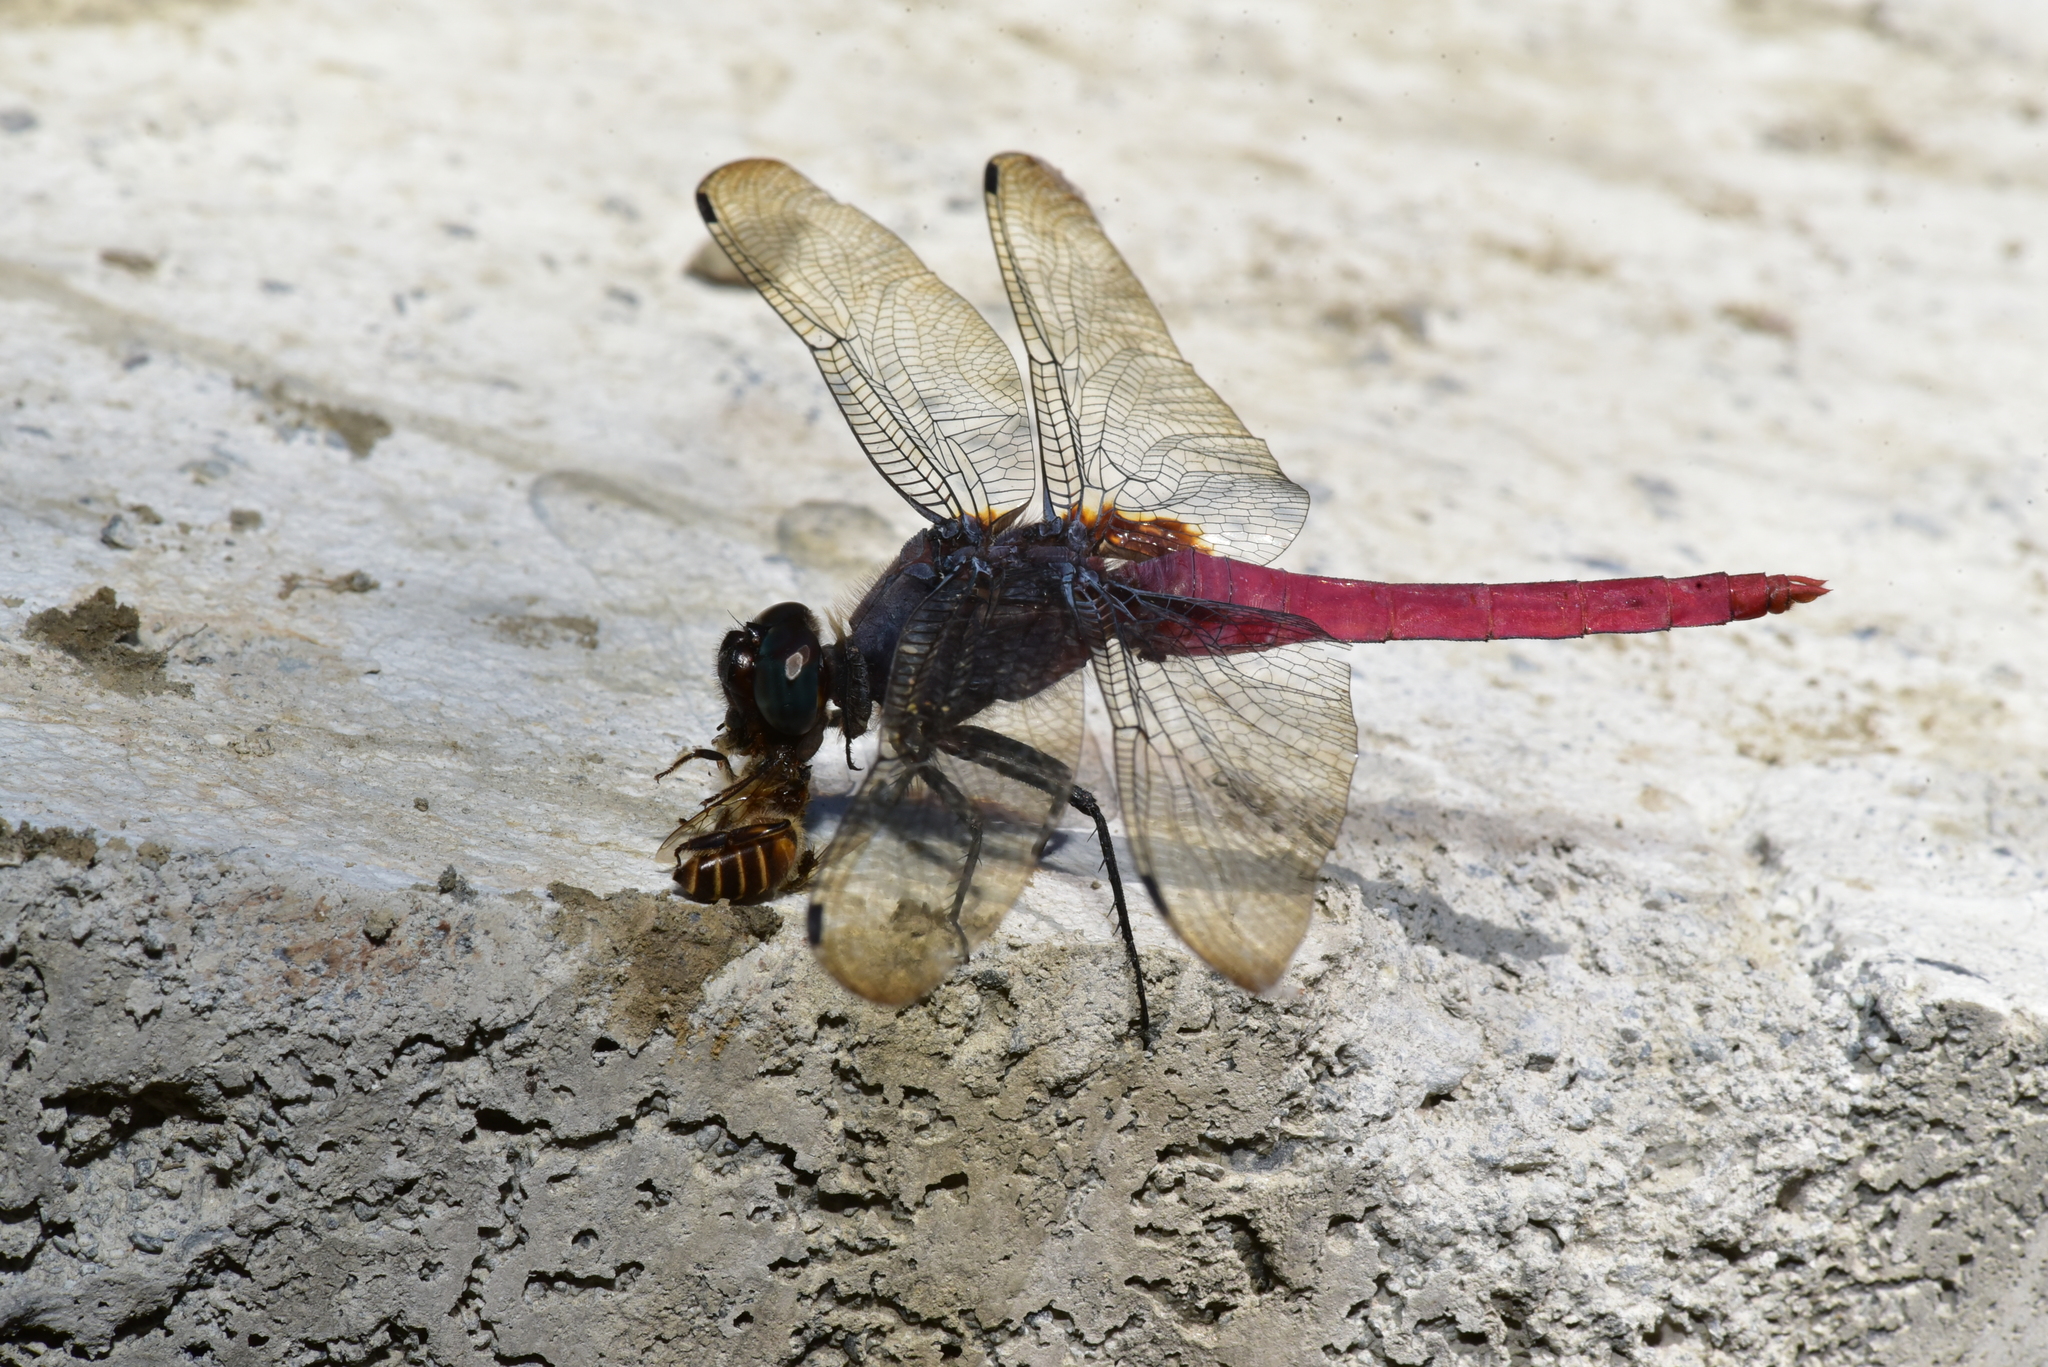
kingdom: Animalia
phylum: Arthropoda
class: Insecta
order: Odonata
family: Libellulidae
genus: Orthetrum
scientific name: Orthetrum pruinosum
